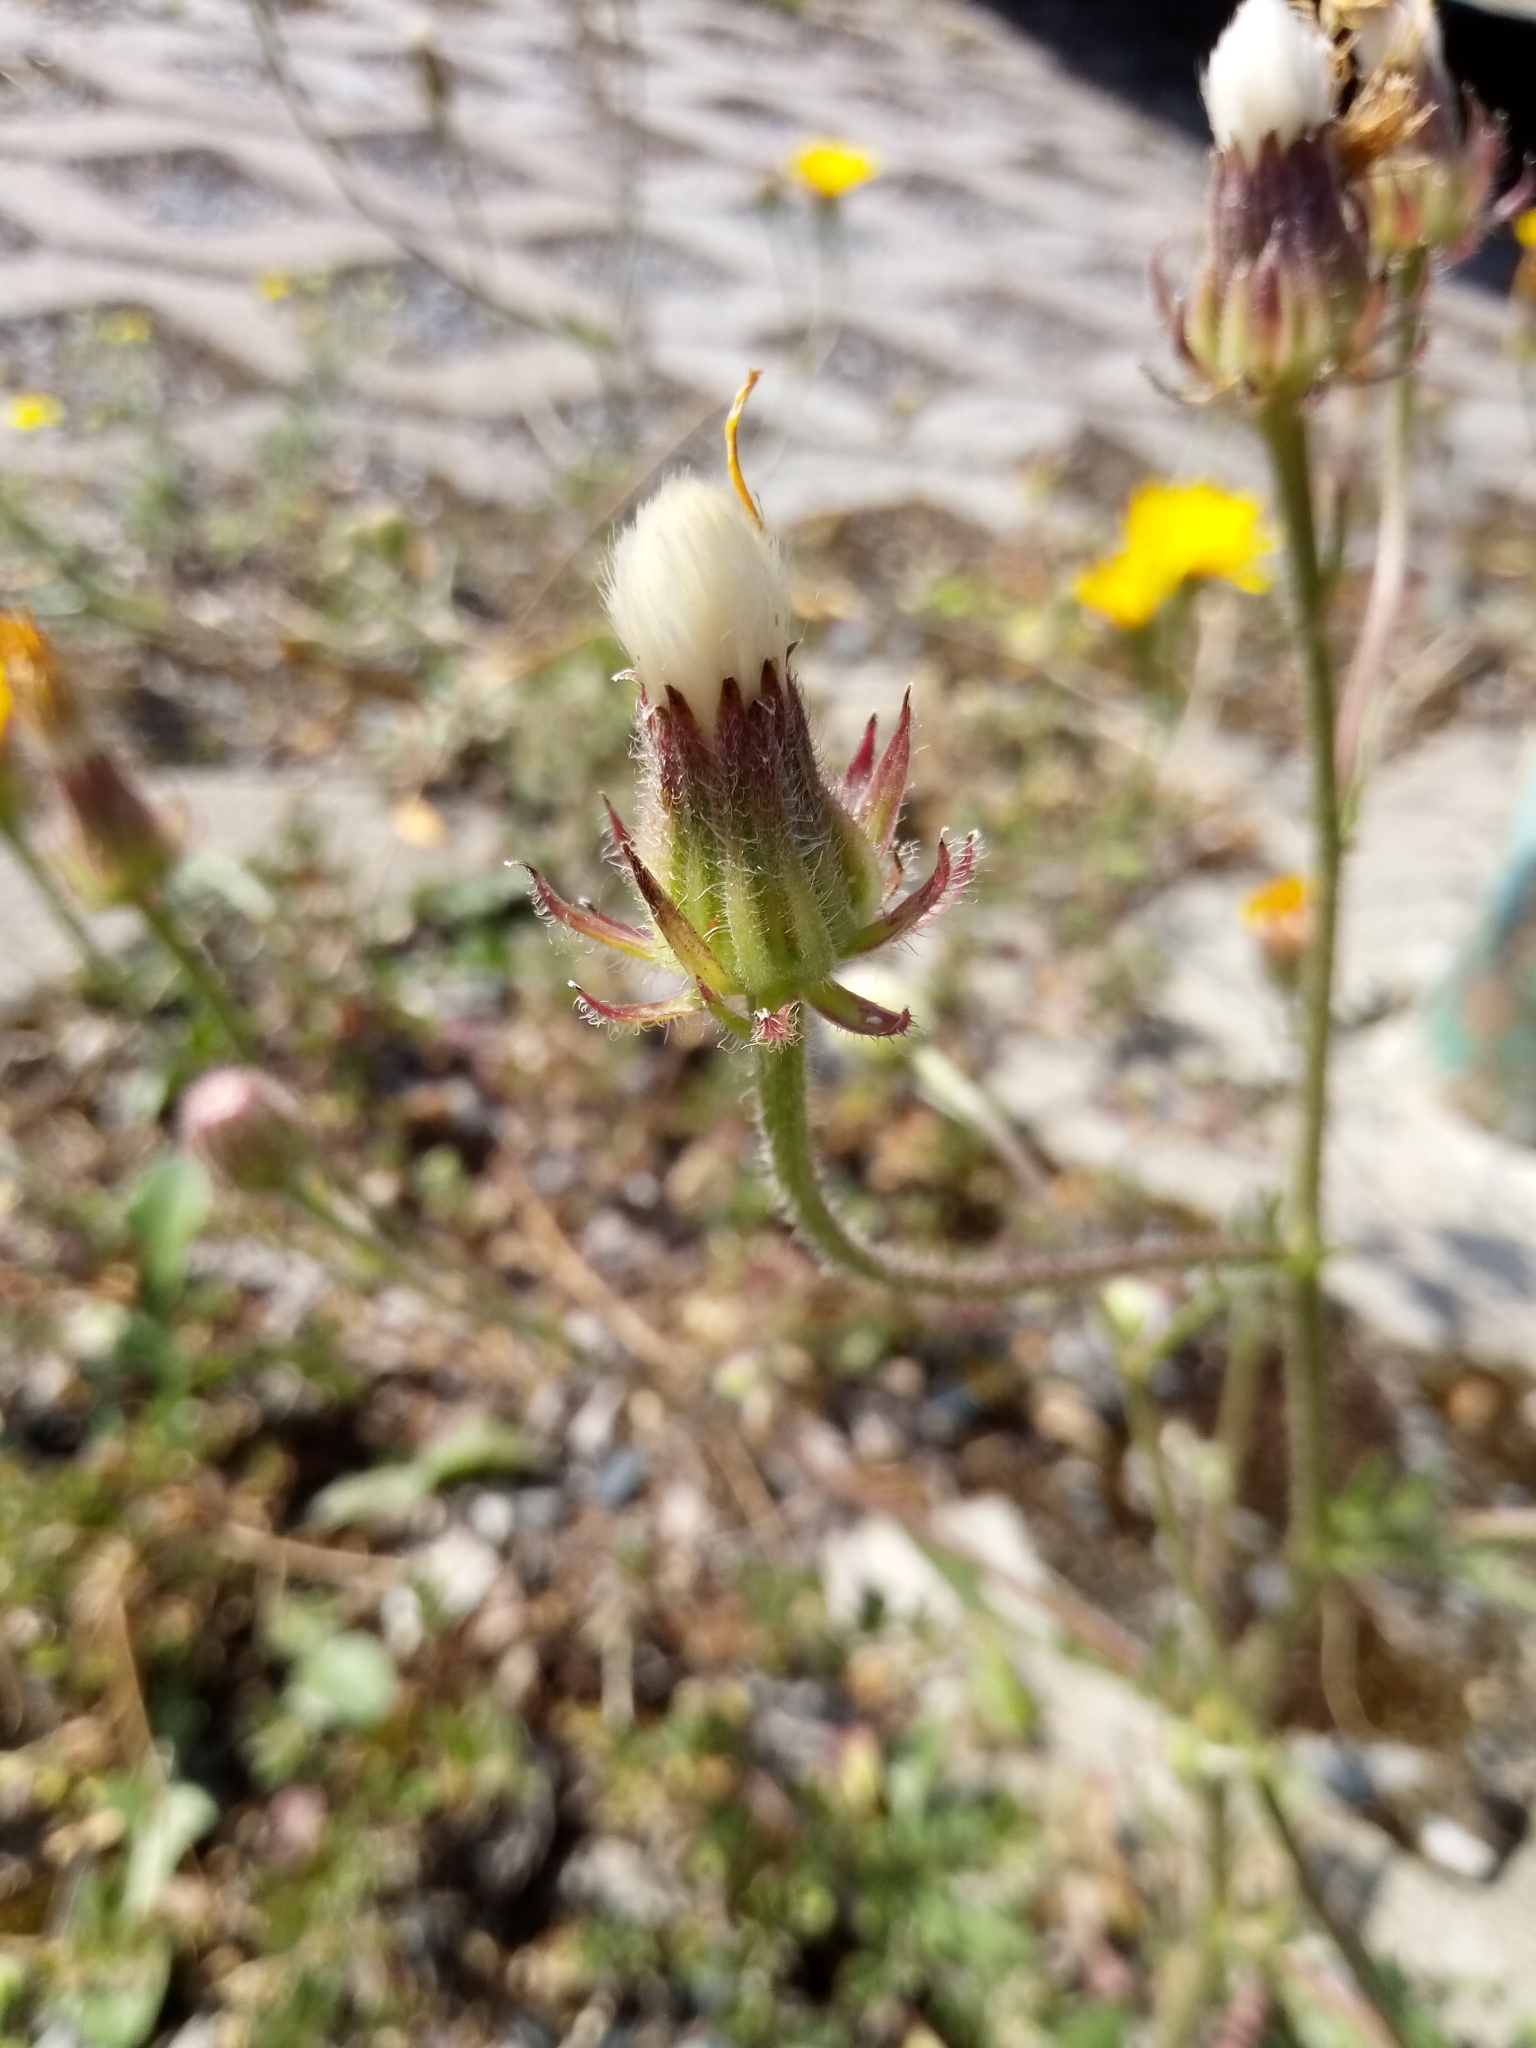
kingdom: Plantae
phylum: Tracheophyta
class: Magnoliopsida
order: Asterales
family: Asteraceae
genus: Crepis
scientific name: Crepis foetida
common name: Stinking hawk's-beard
